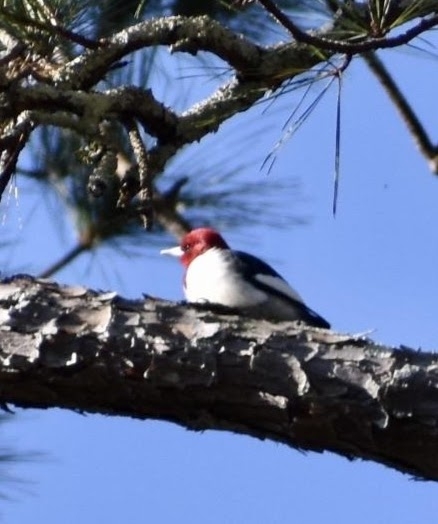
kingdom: Animalia
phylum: Chordata
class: Aves
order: Piciformes
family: Picidae
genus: Melanerpes
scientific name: Melanerpes erythrocephalus
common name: Red-headed woodpecker
